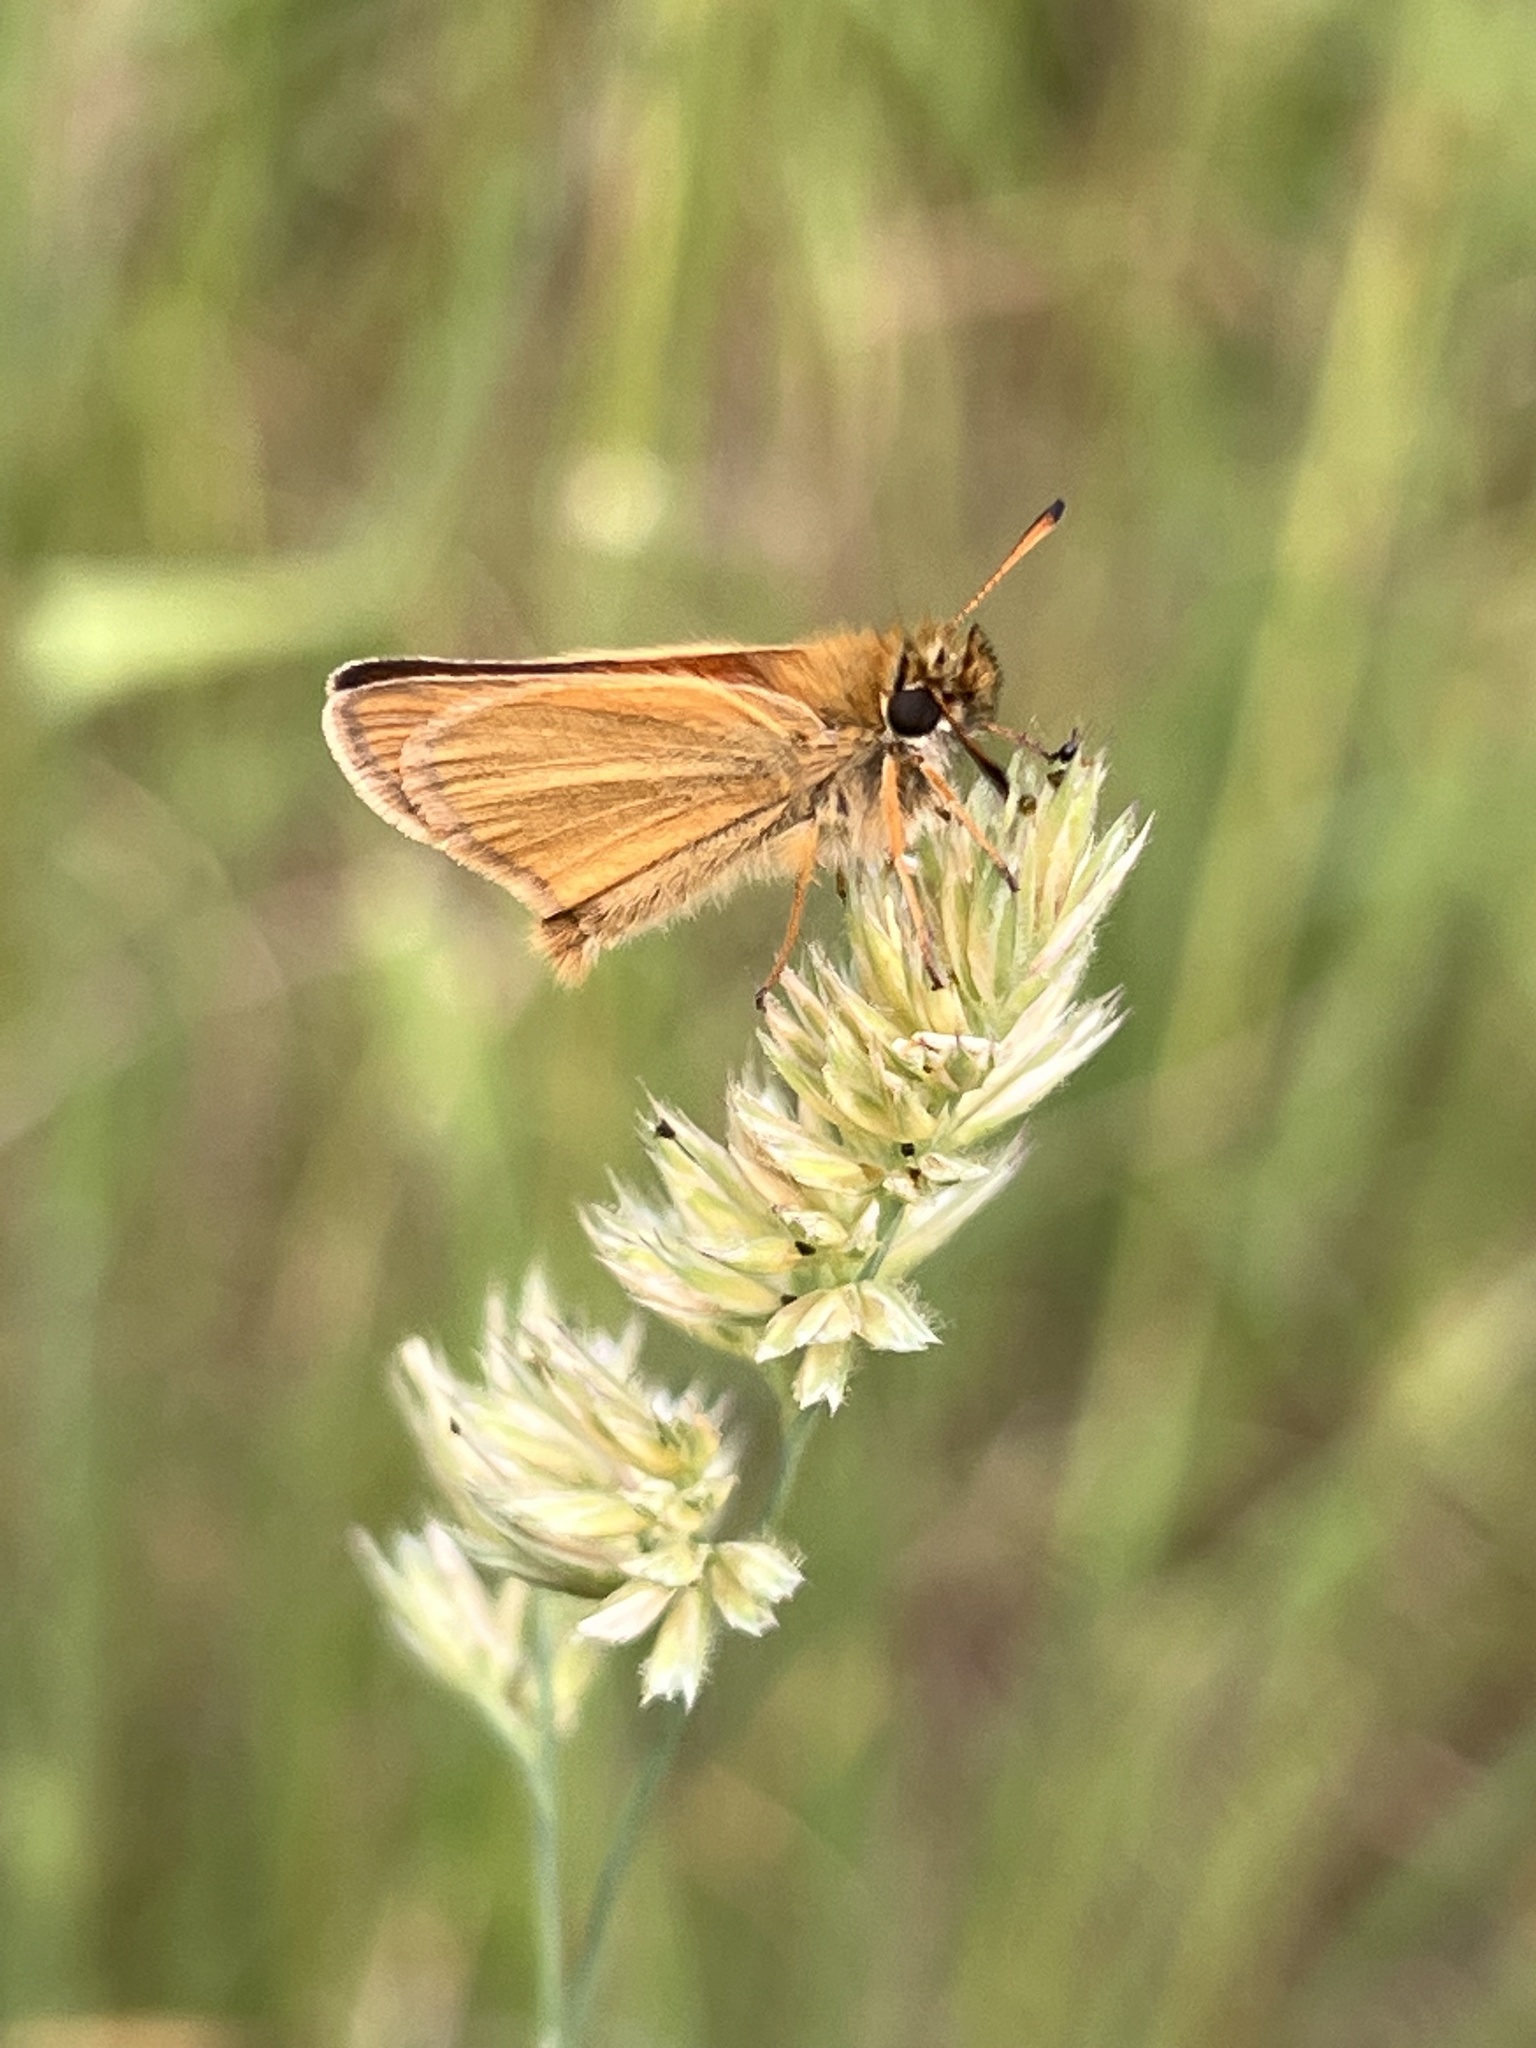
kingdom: Animalia
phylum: Arthropoda
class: Insecta
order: Lepidoptera
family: Hesperiidae
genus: Thymelicus
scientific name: Thymelicus lineola
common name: Essex skipper
